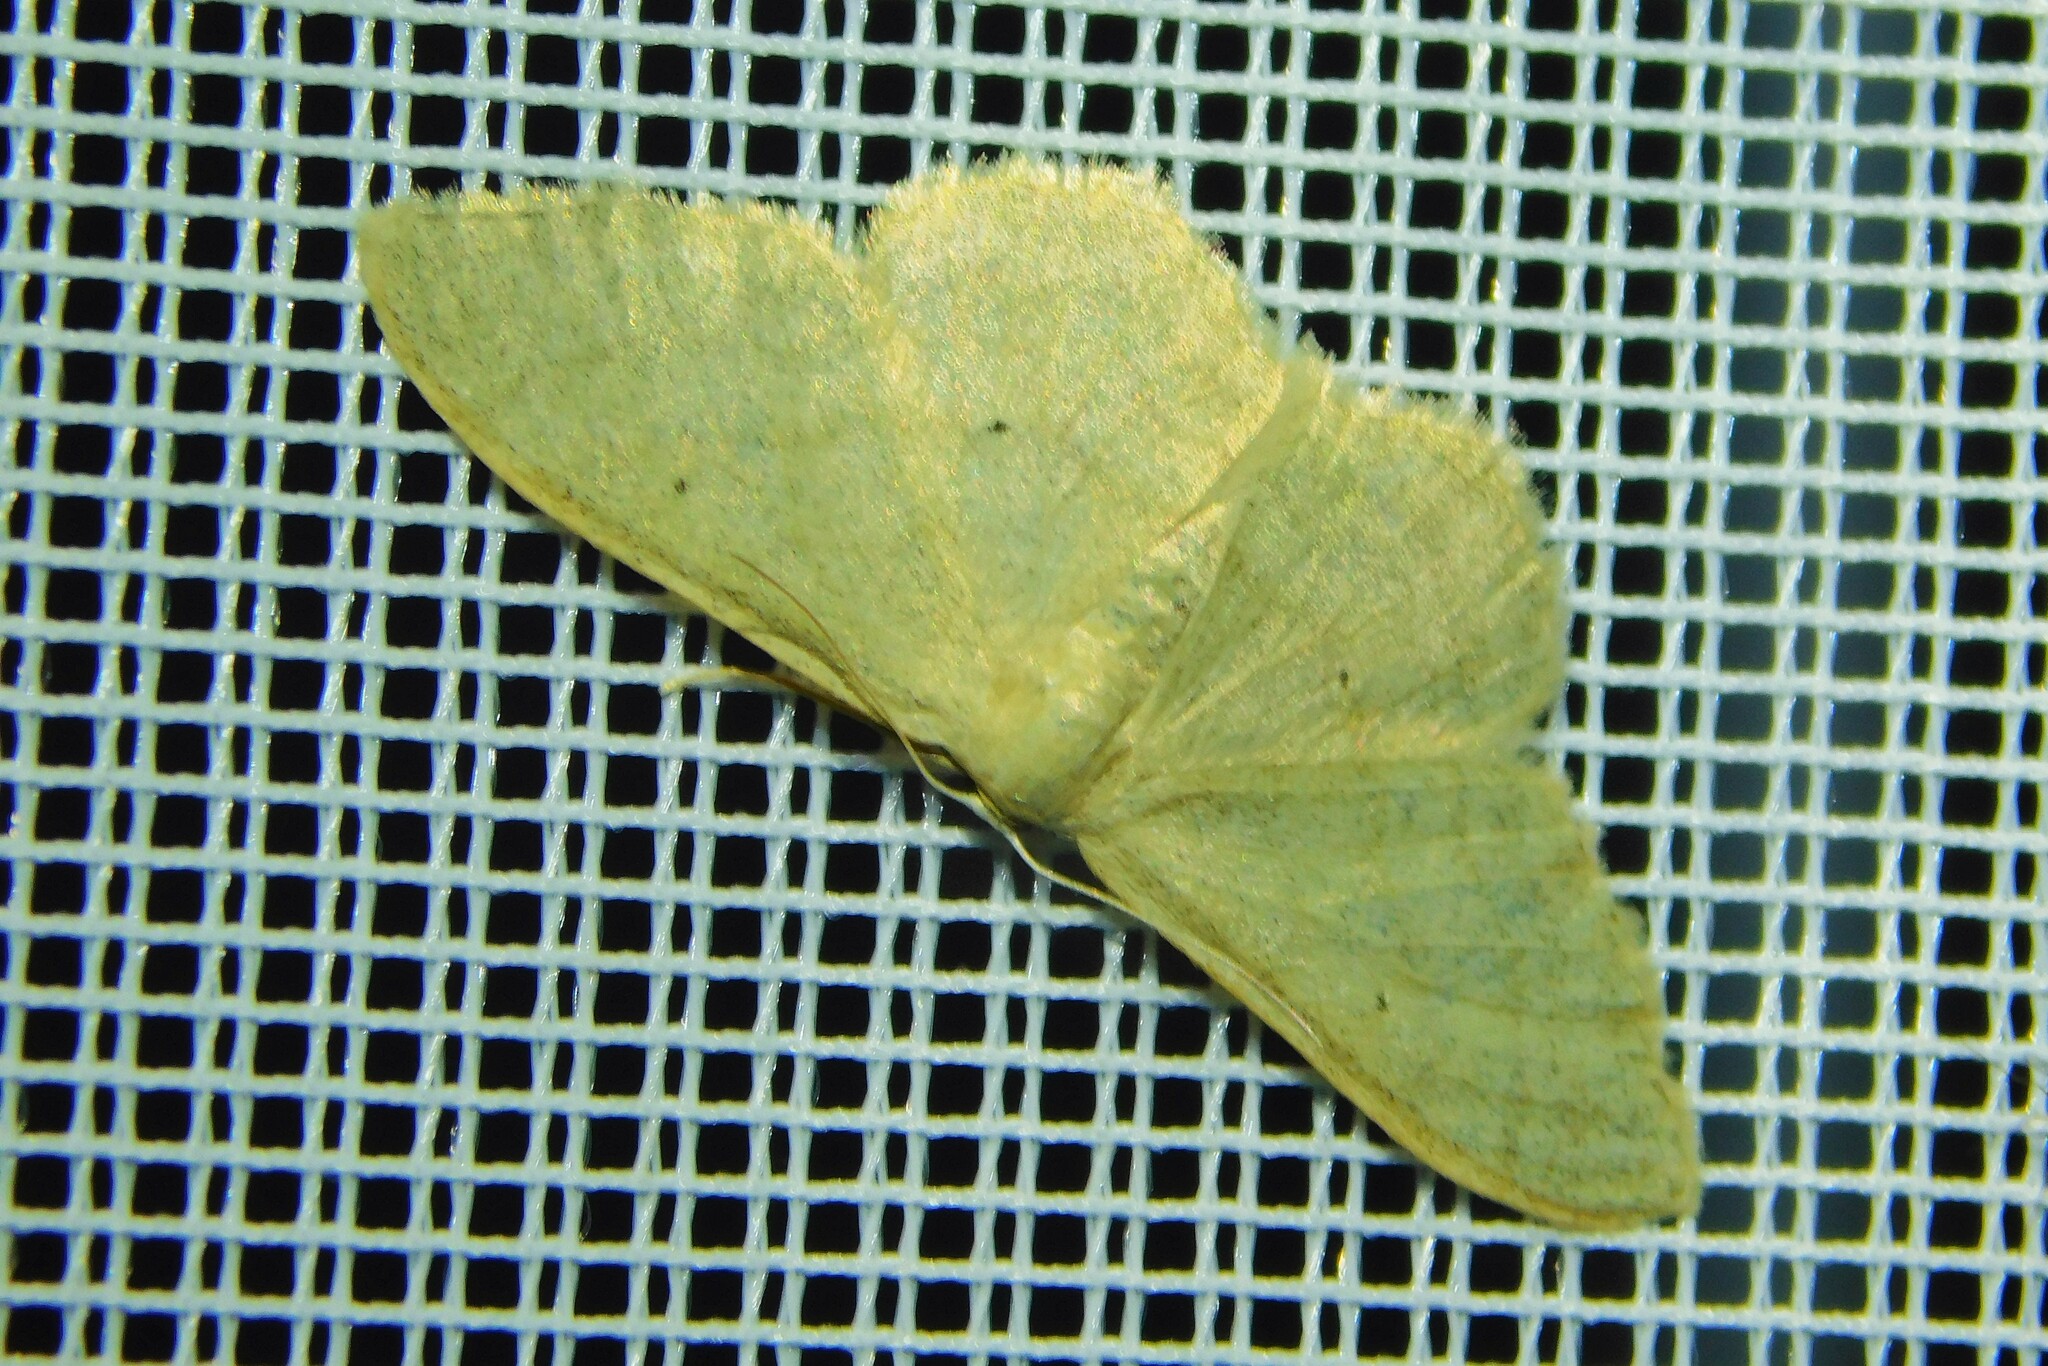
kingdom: Animalia
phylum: Arthropoda
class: Insecta
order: Lepidoptera
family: Geometridae
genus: Idaea
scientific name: Idaea straminata
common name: Plain wave
